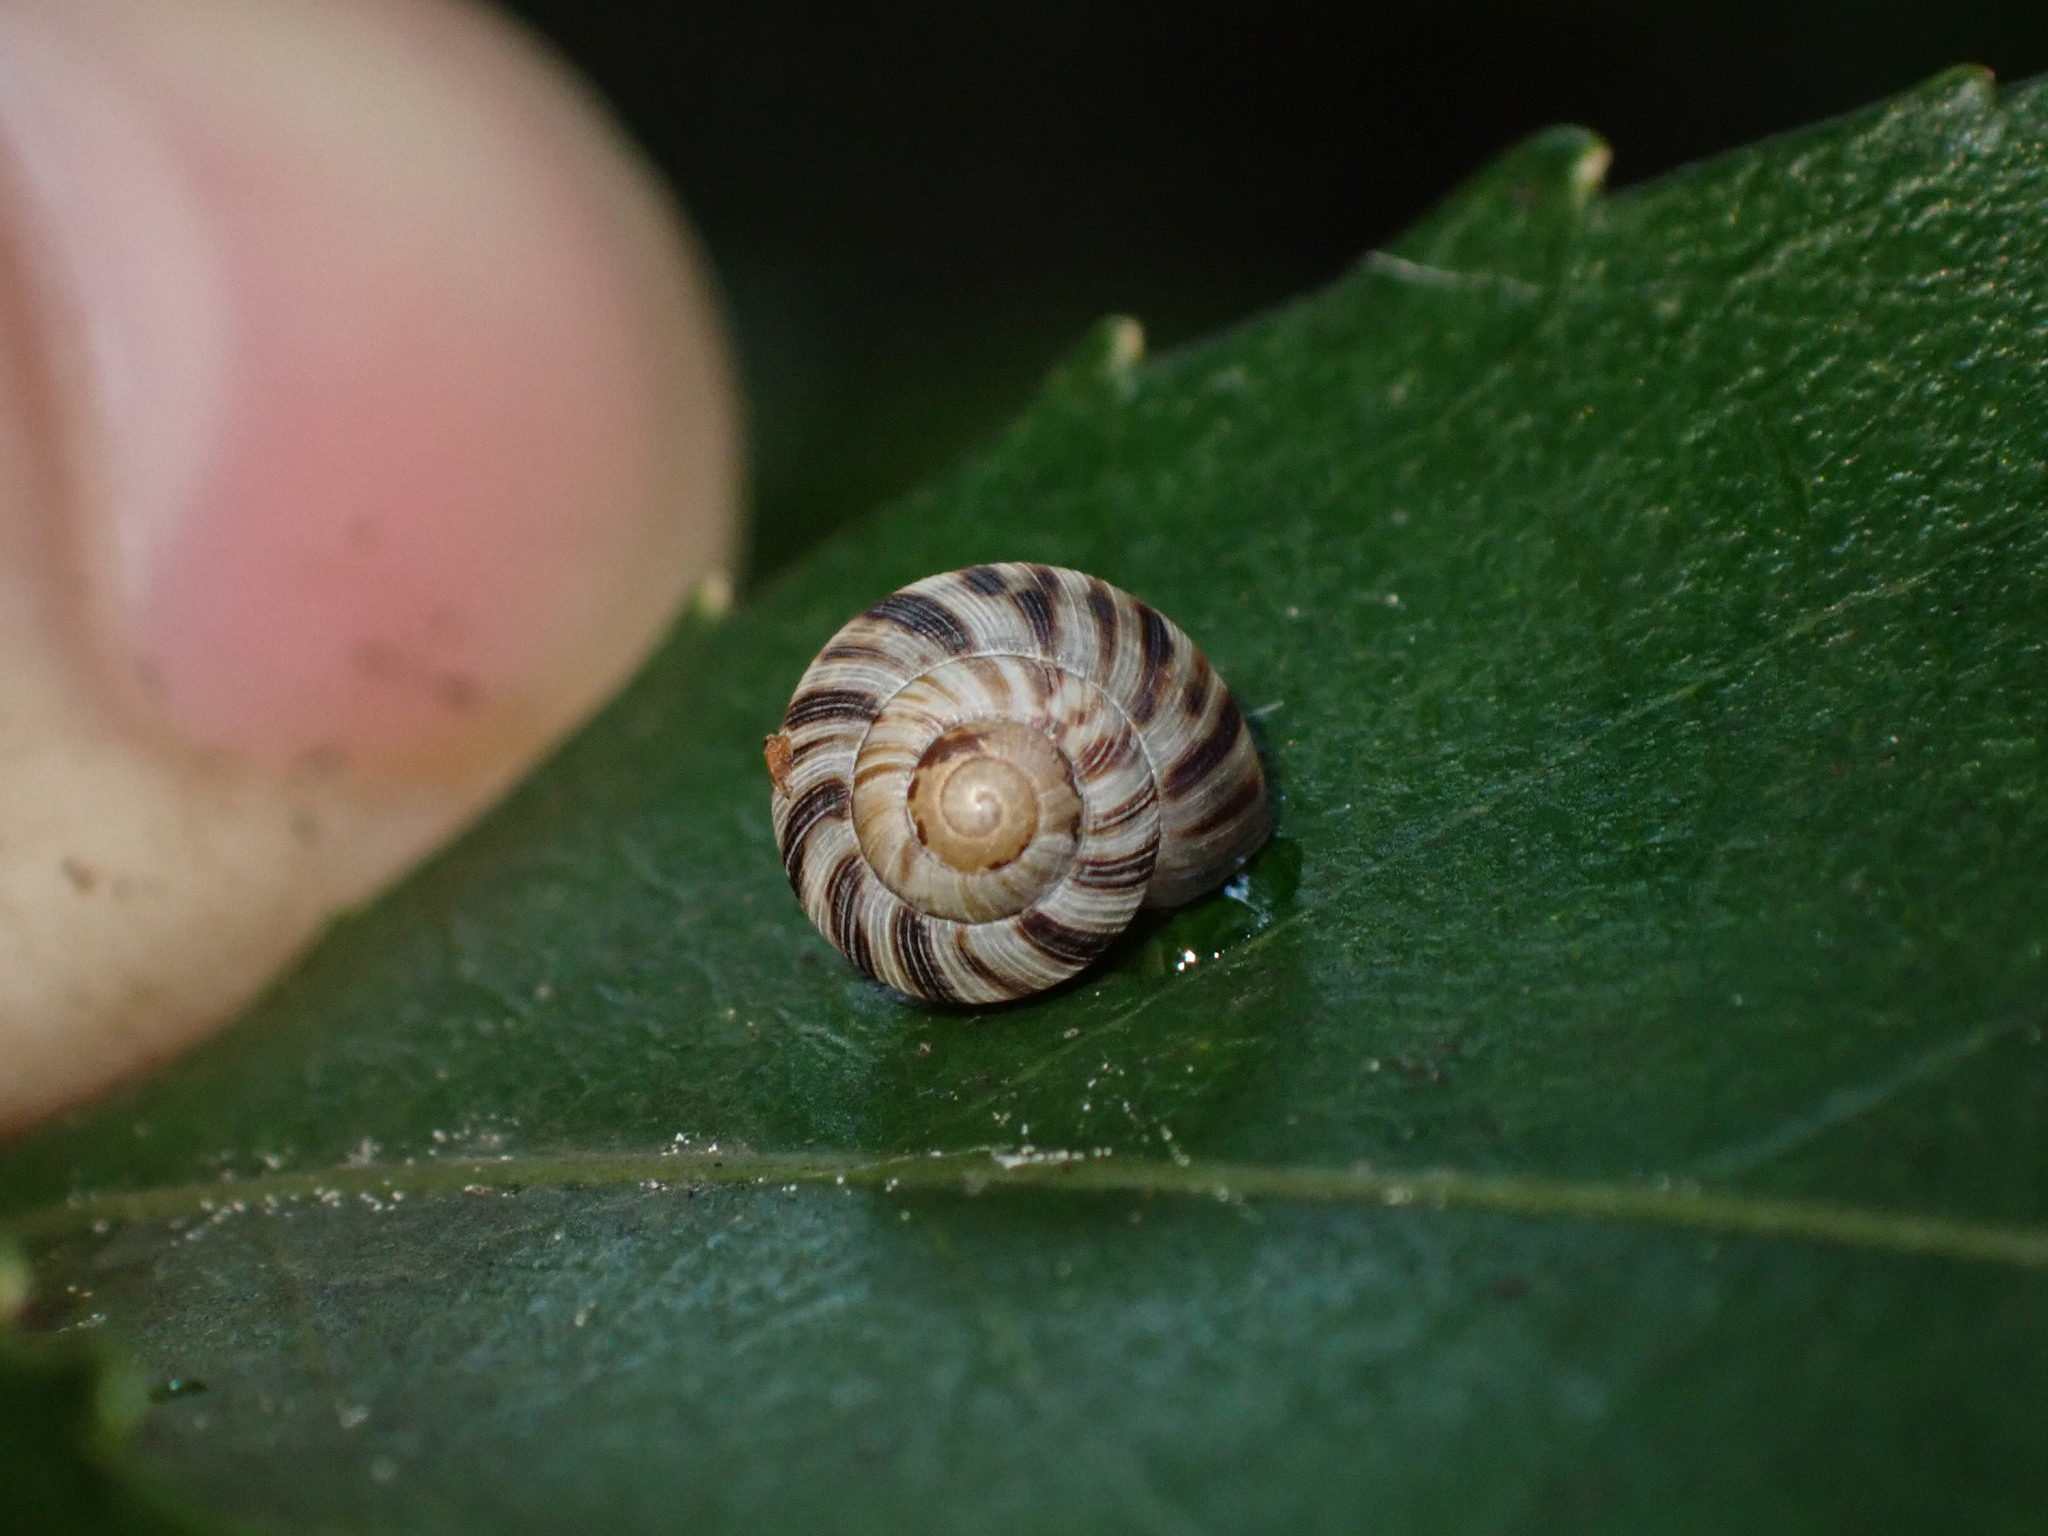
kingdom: Animalia
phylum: Mollusca
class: Gastropoda
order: Stylommatophora
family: Charopidae
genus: Serpho
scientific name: Serpho
